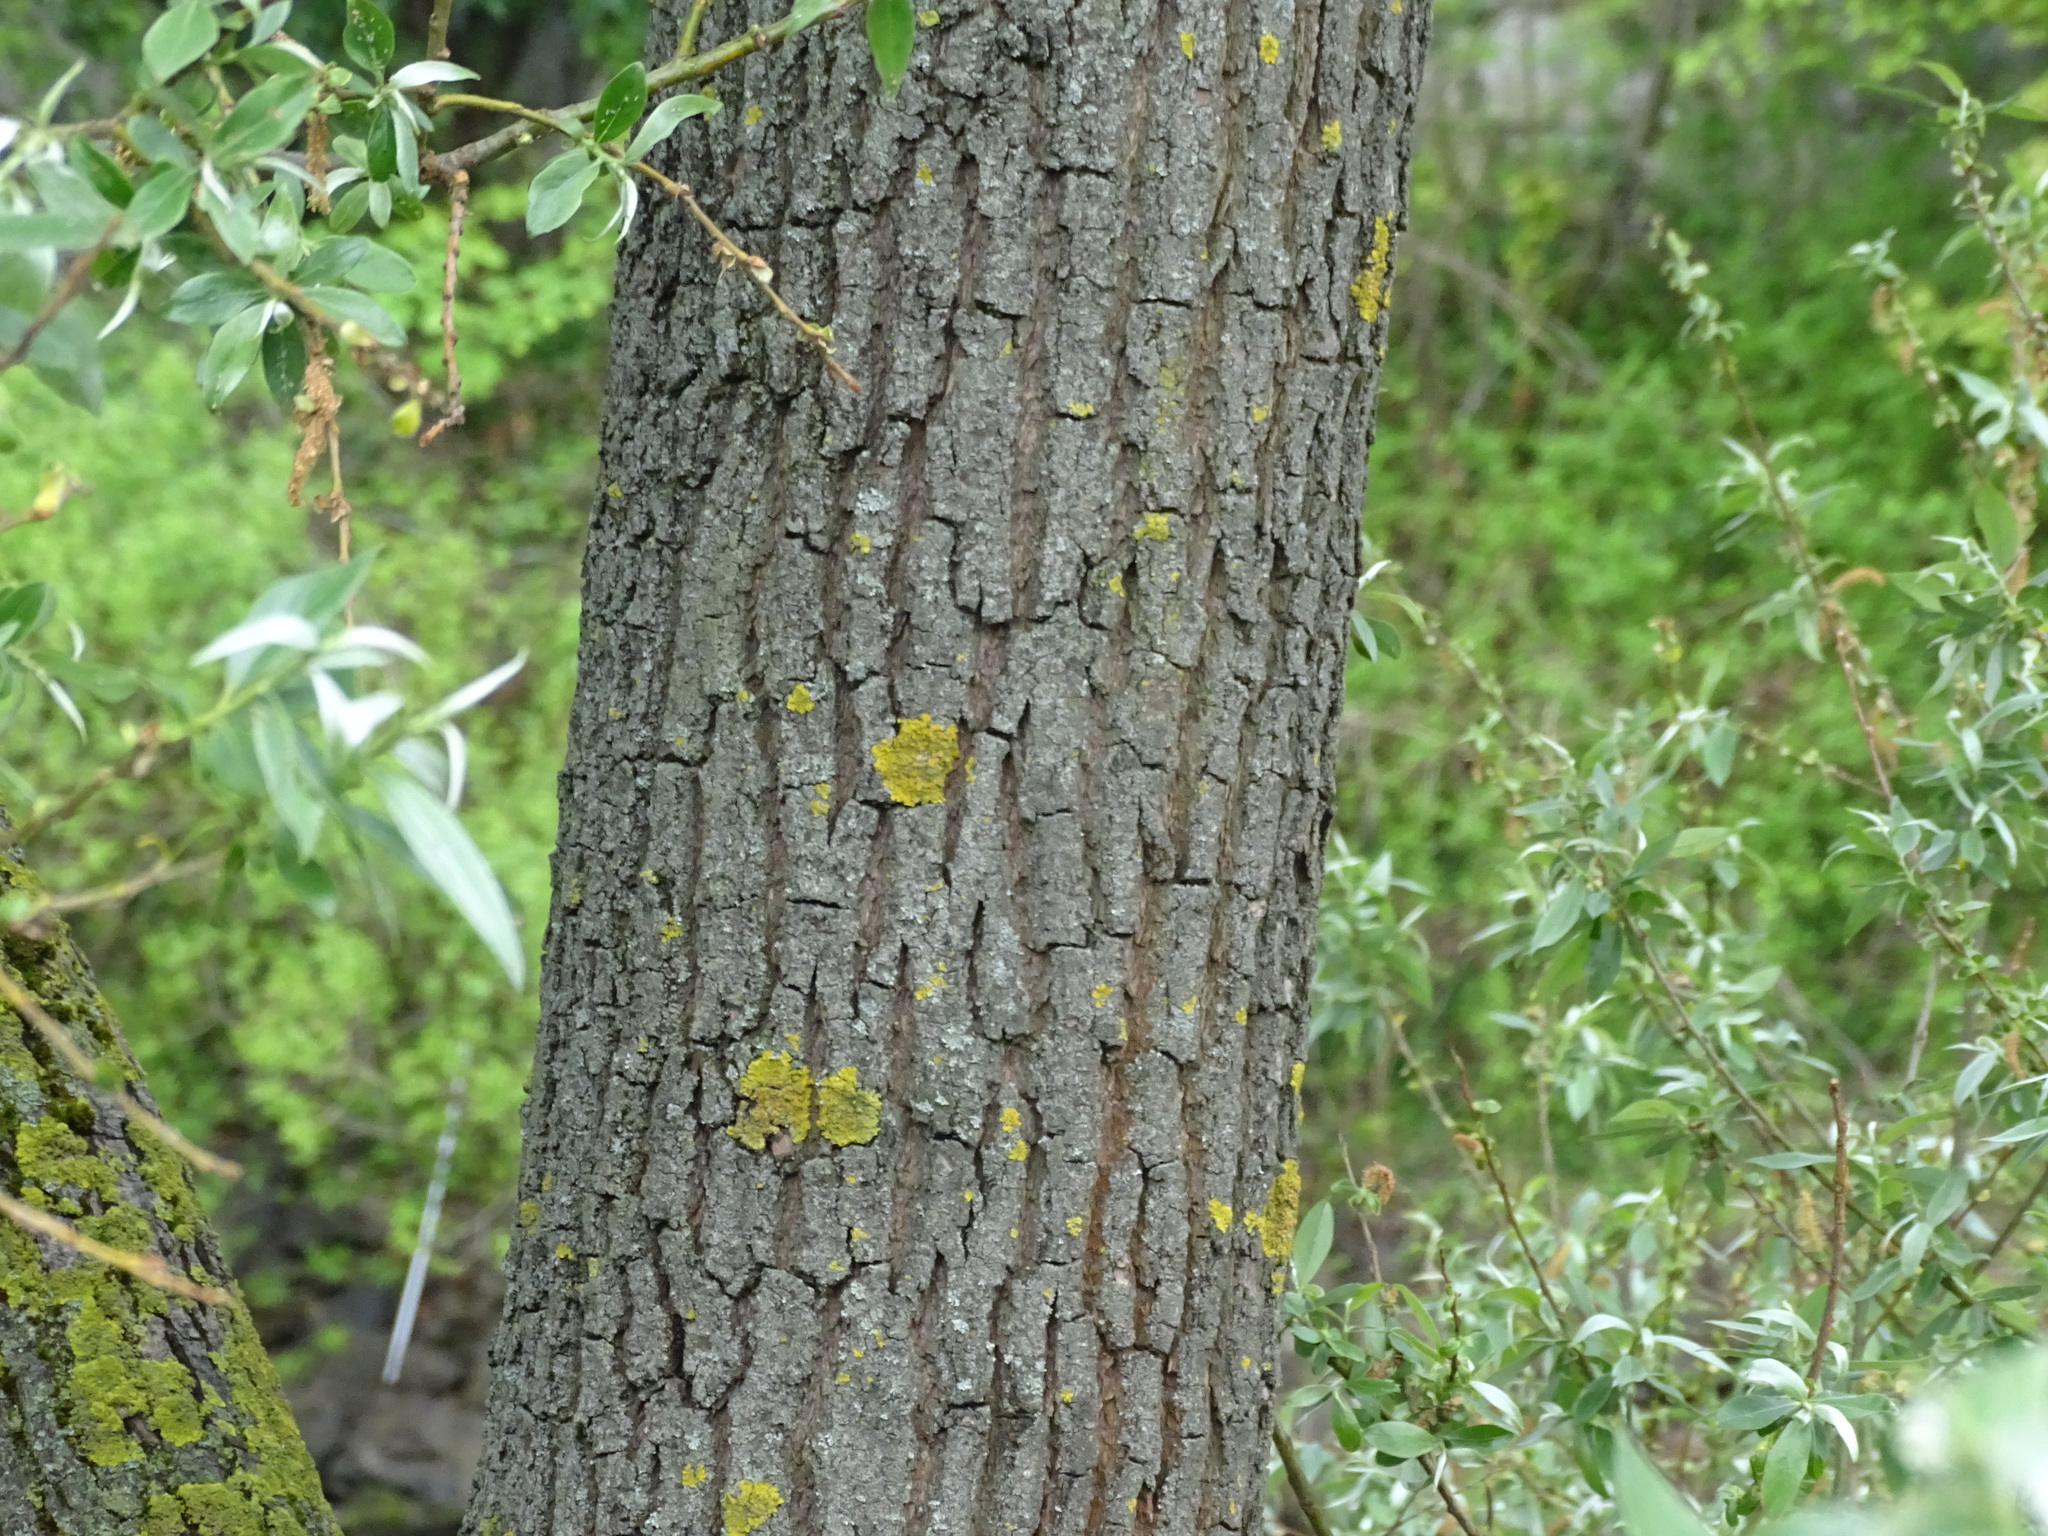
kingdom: Plantae
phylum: Tracheophyta
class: Magnoliopsida
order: Rosales
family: Ulmaceae
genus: Ulmus
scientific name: Ulmus glabra
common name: Wych elm
